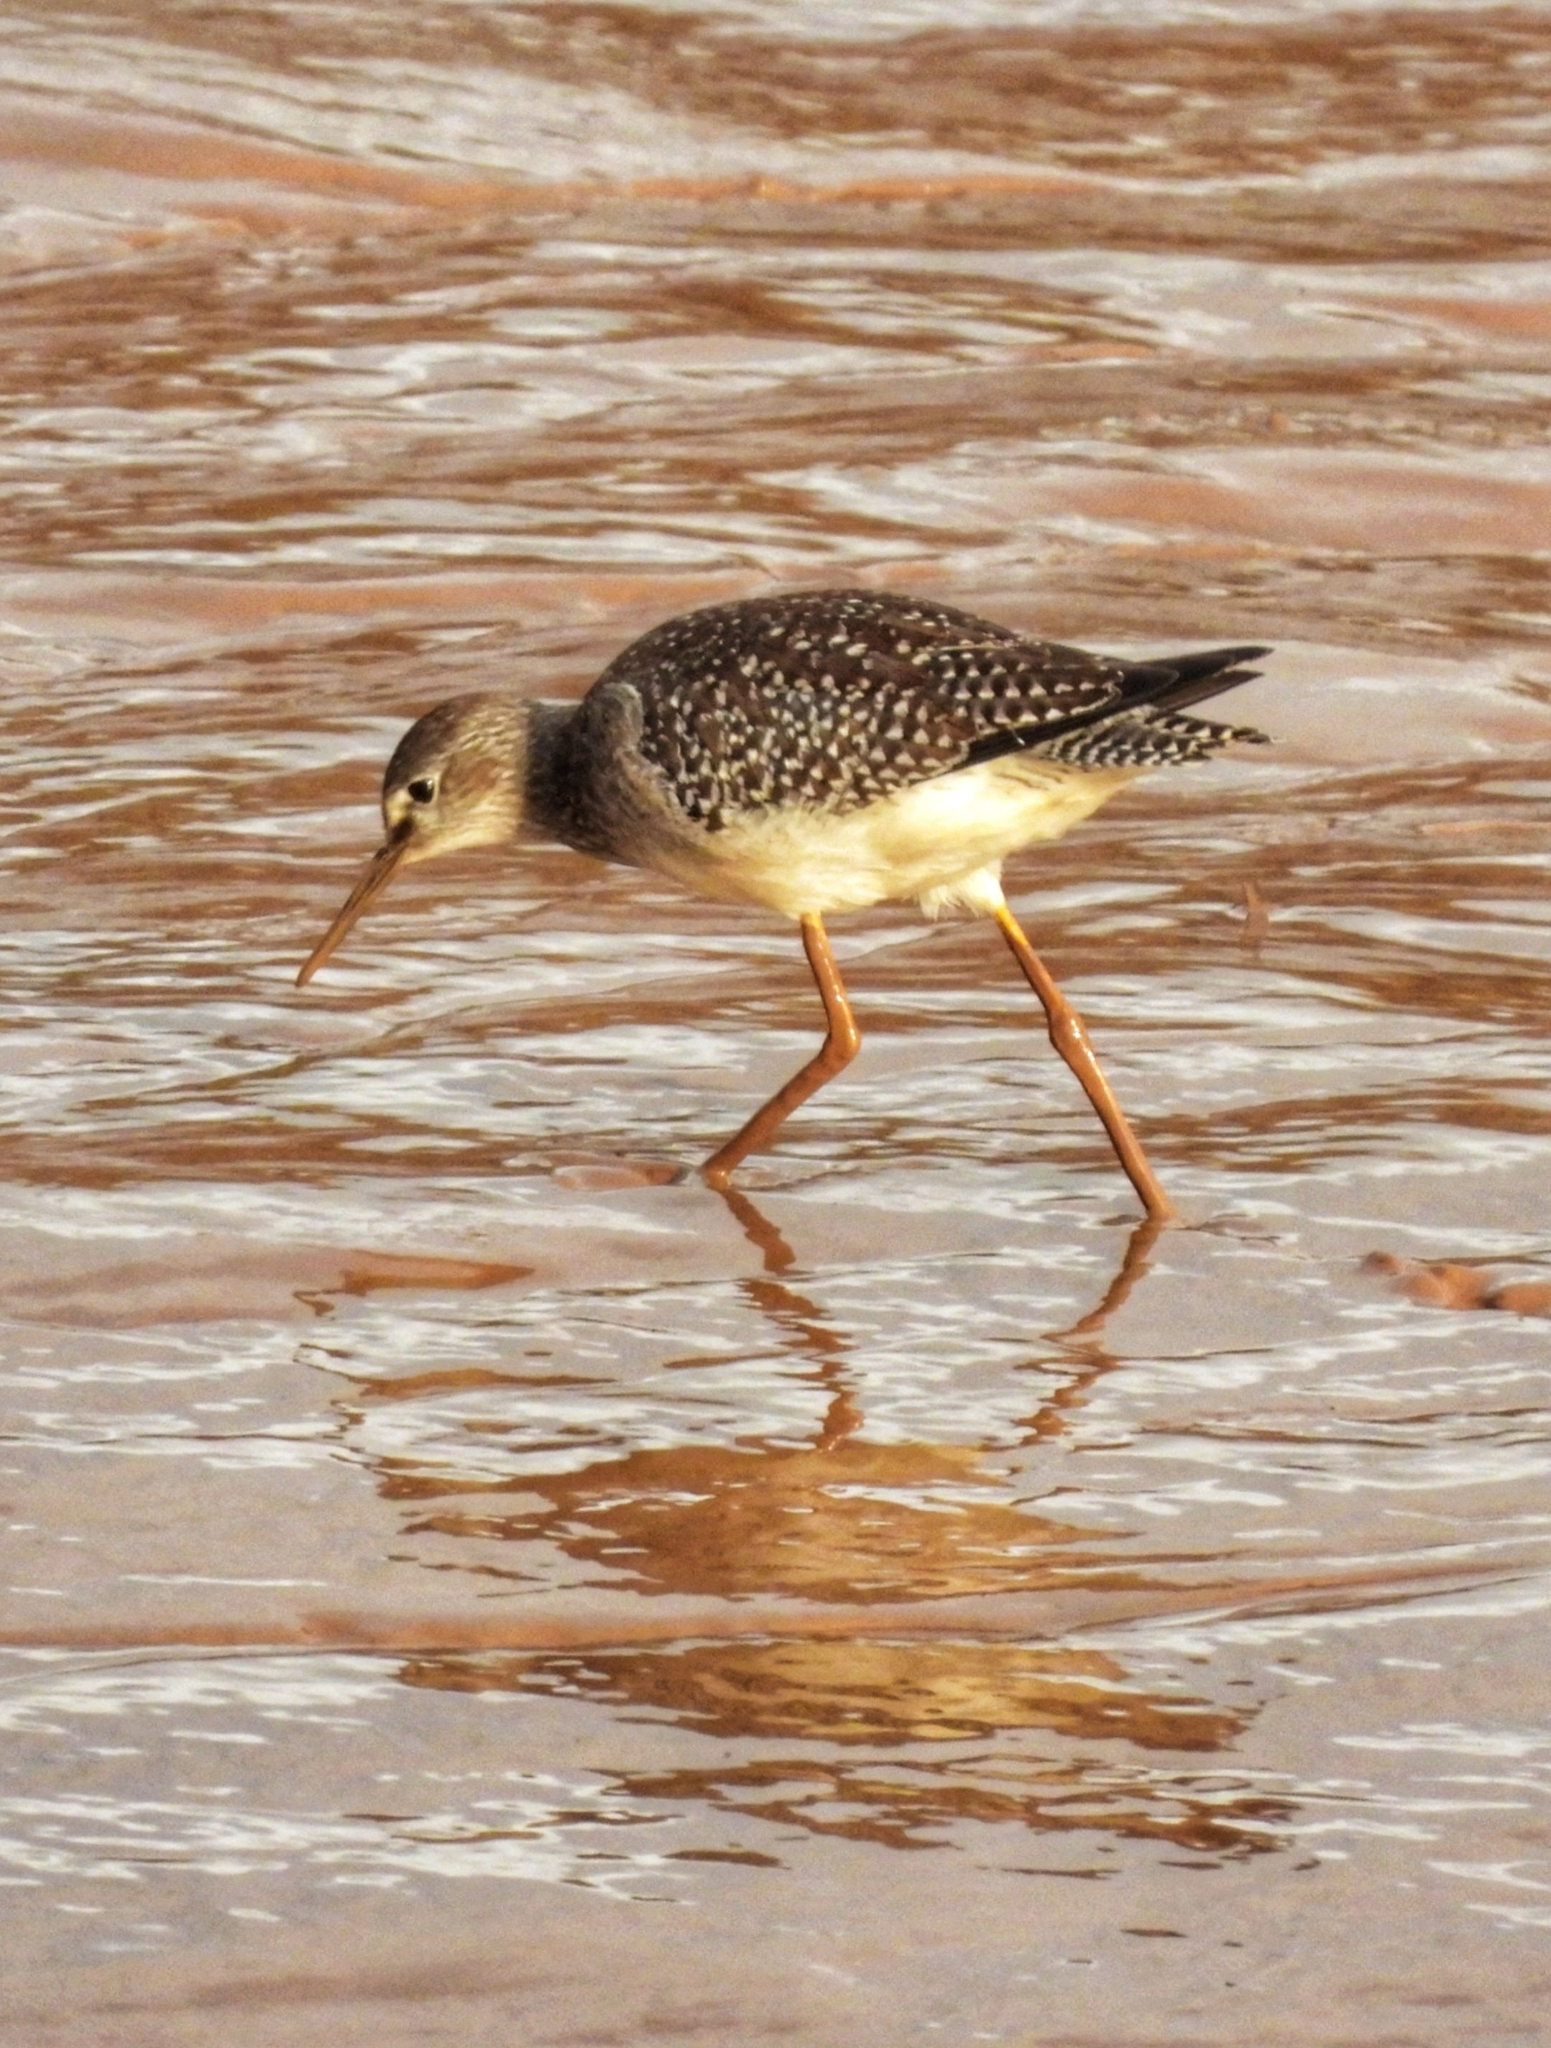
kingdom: Animalia
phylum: Chordata
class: Aves
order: Charadriiformes
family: Scolopacidae
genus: Tringa
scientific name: Tringa flavipes
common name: Lesser yellowlegs
